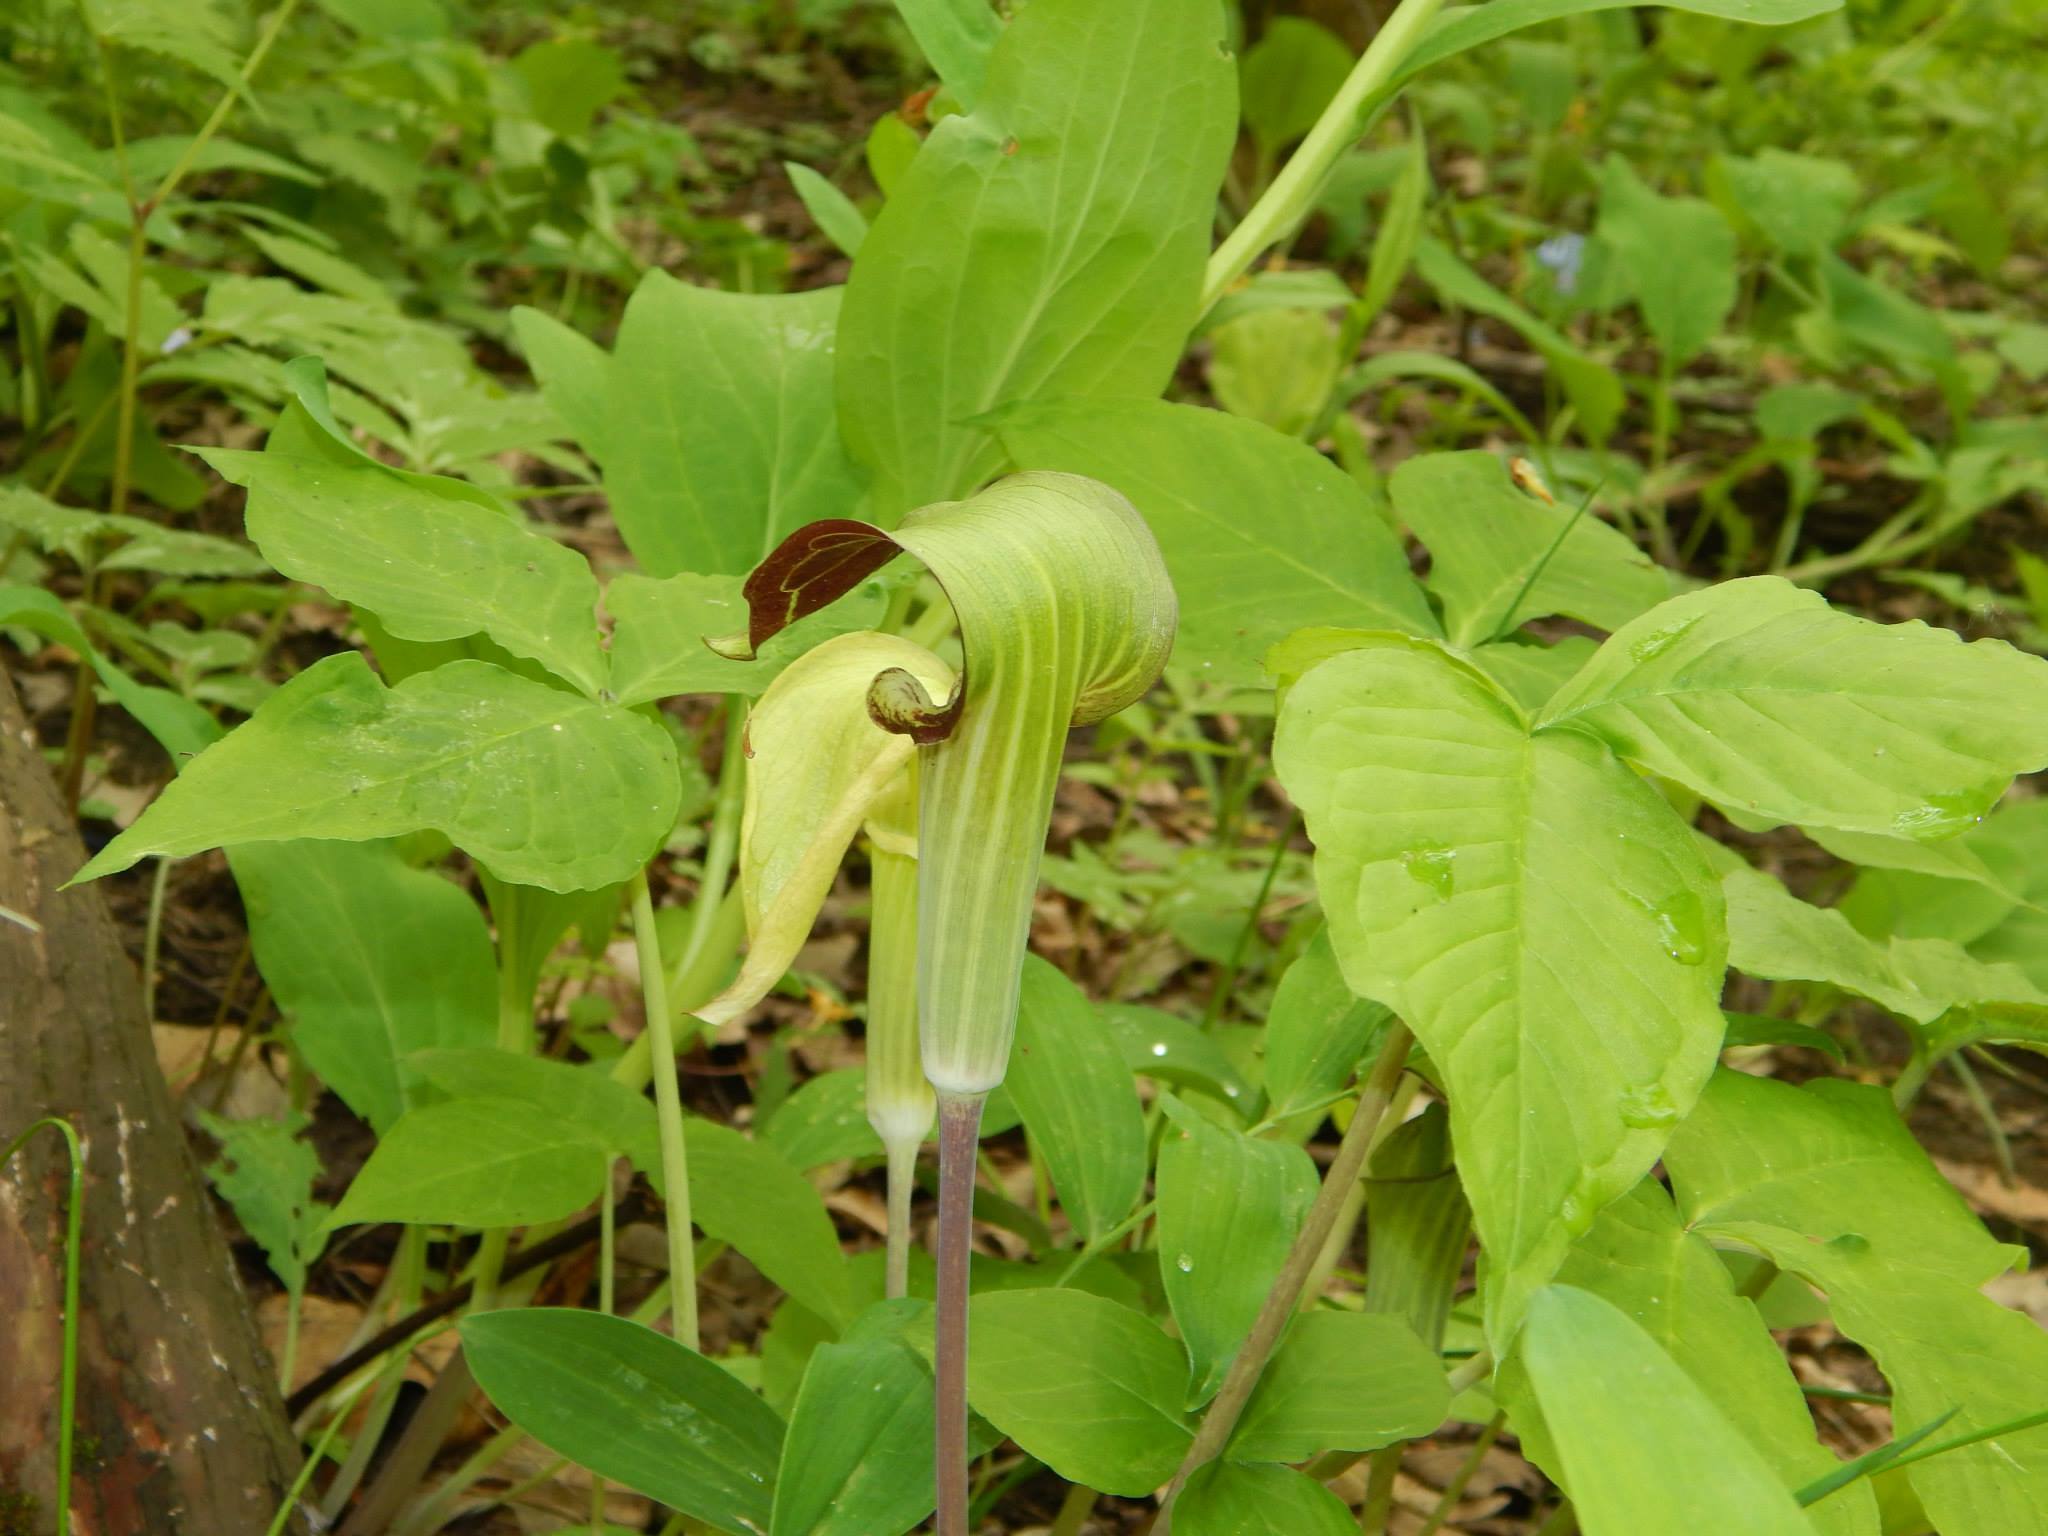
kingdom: Plantae
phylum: Tracheophyta
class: Liliopsida
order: Alismatales
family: Araceae
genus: Arisaema
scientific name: Arisaema triphyllum
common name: Jack-in-the-pulpit
